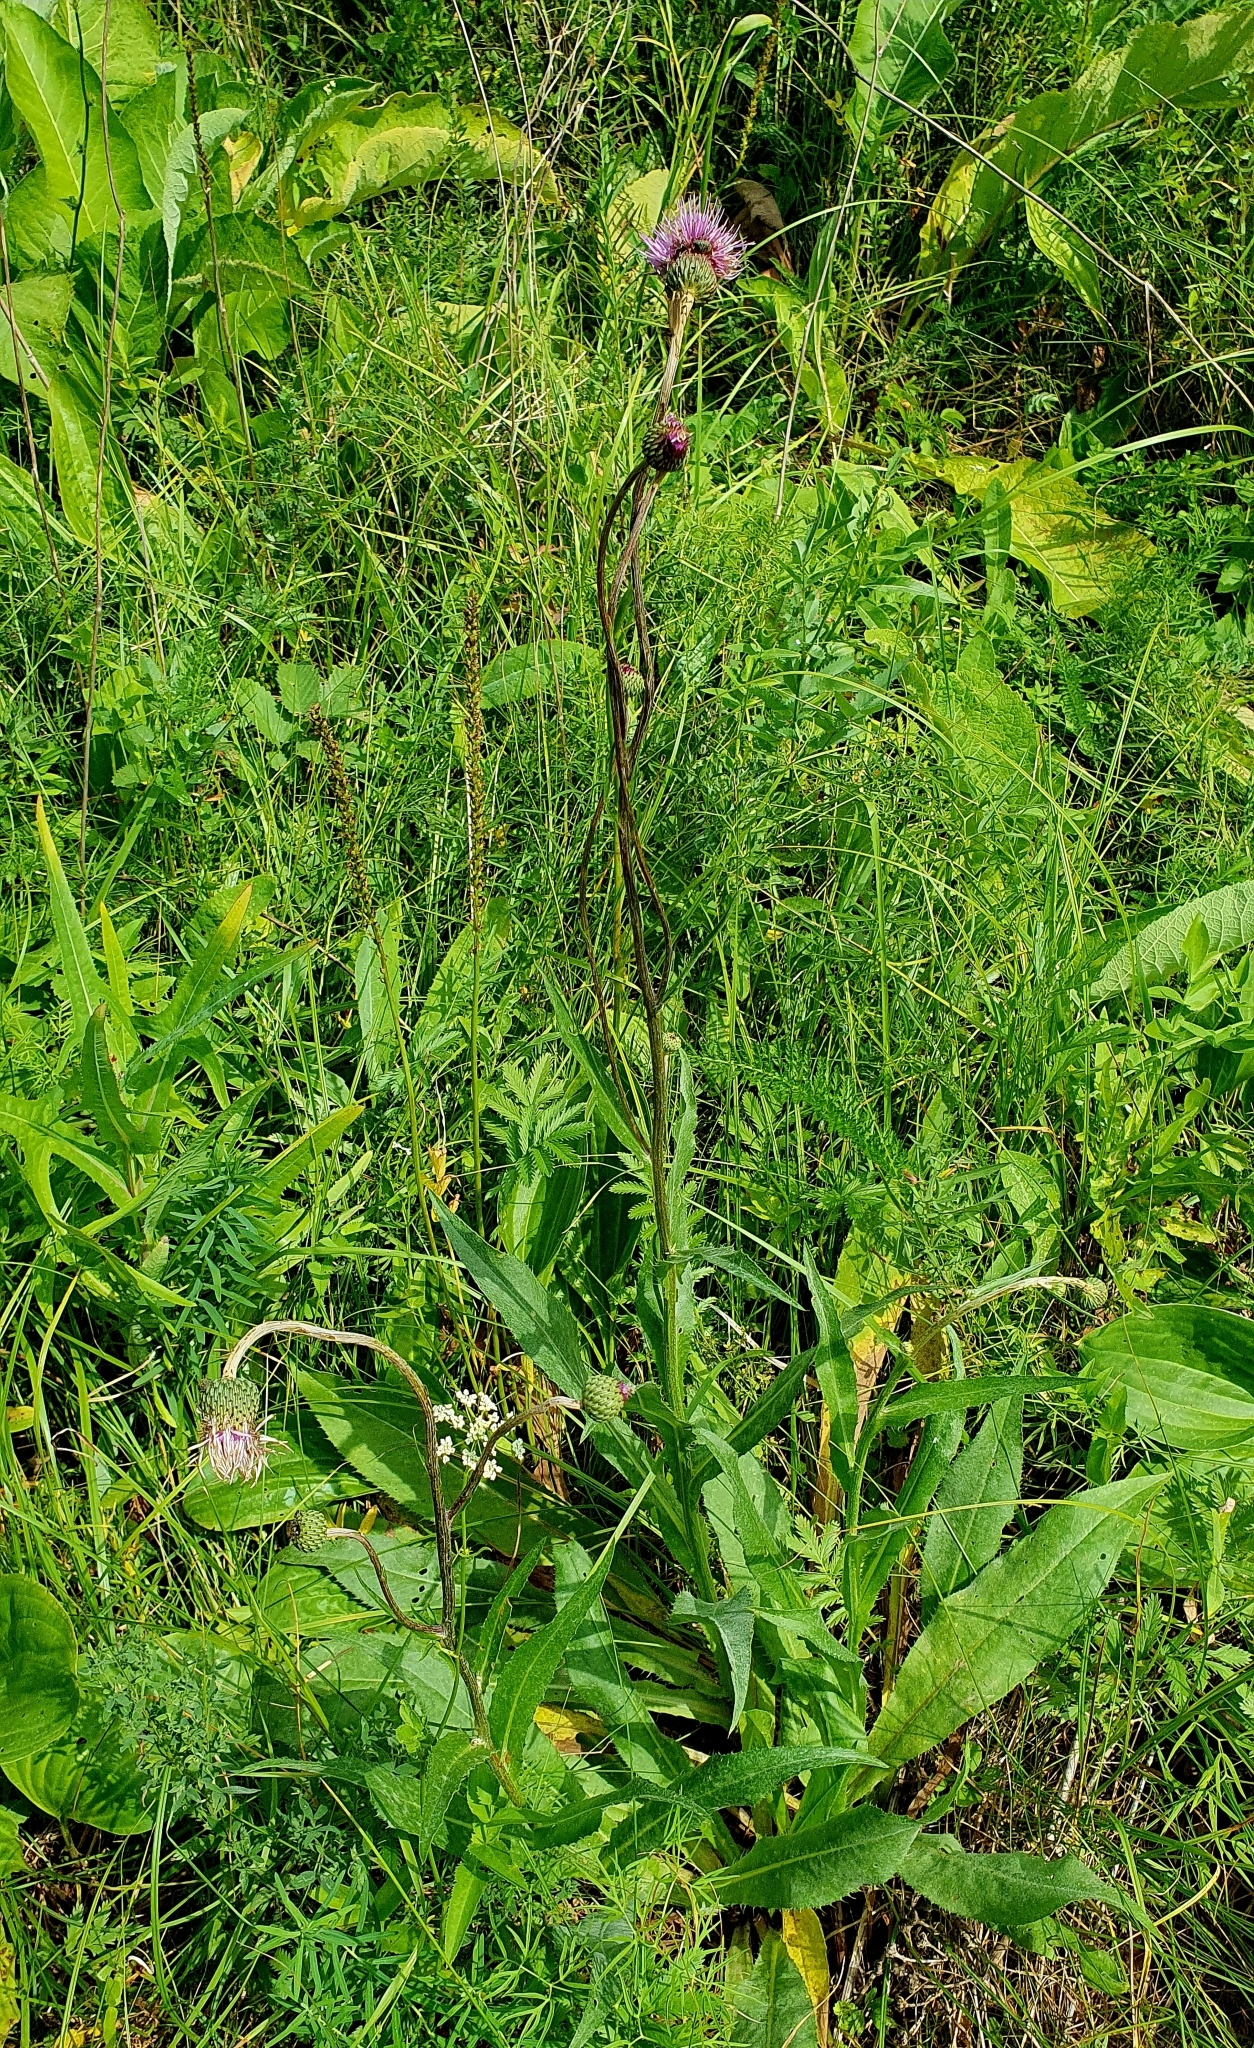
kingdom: Plantae
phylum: Tracheophyta
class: Magnoliopsida
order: Asterales
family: Asteraceae
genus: Cirsium
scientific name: Cirsium canum
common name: Queen anne's thistle
